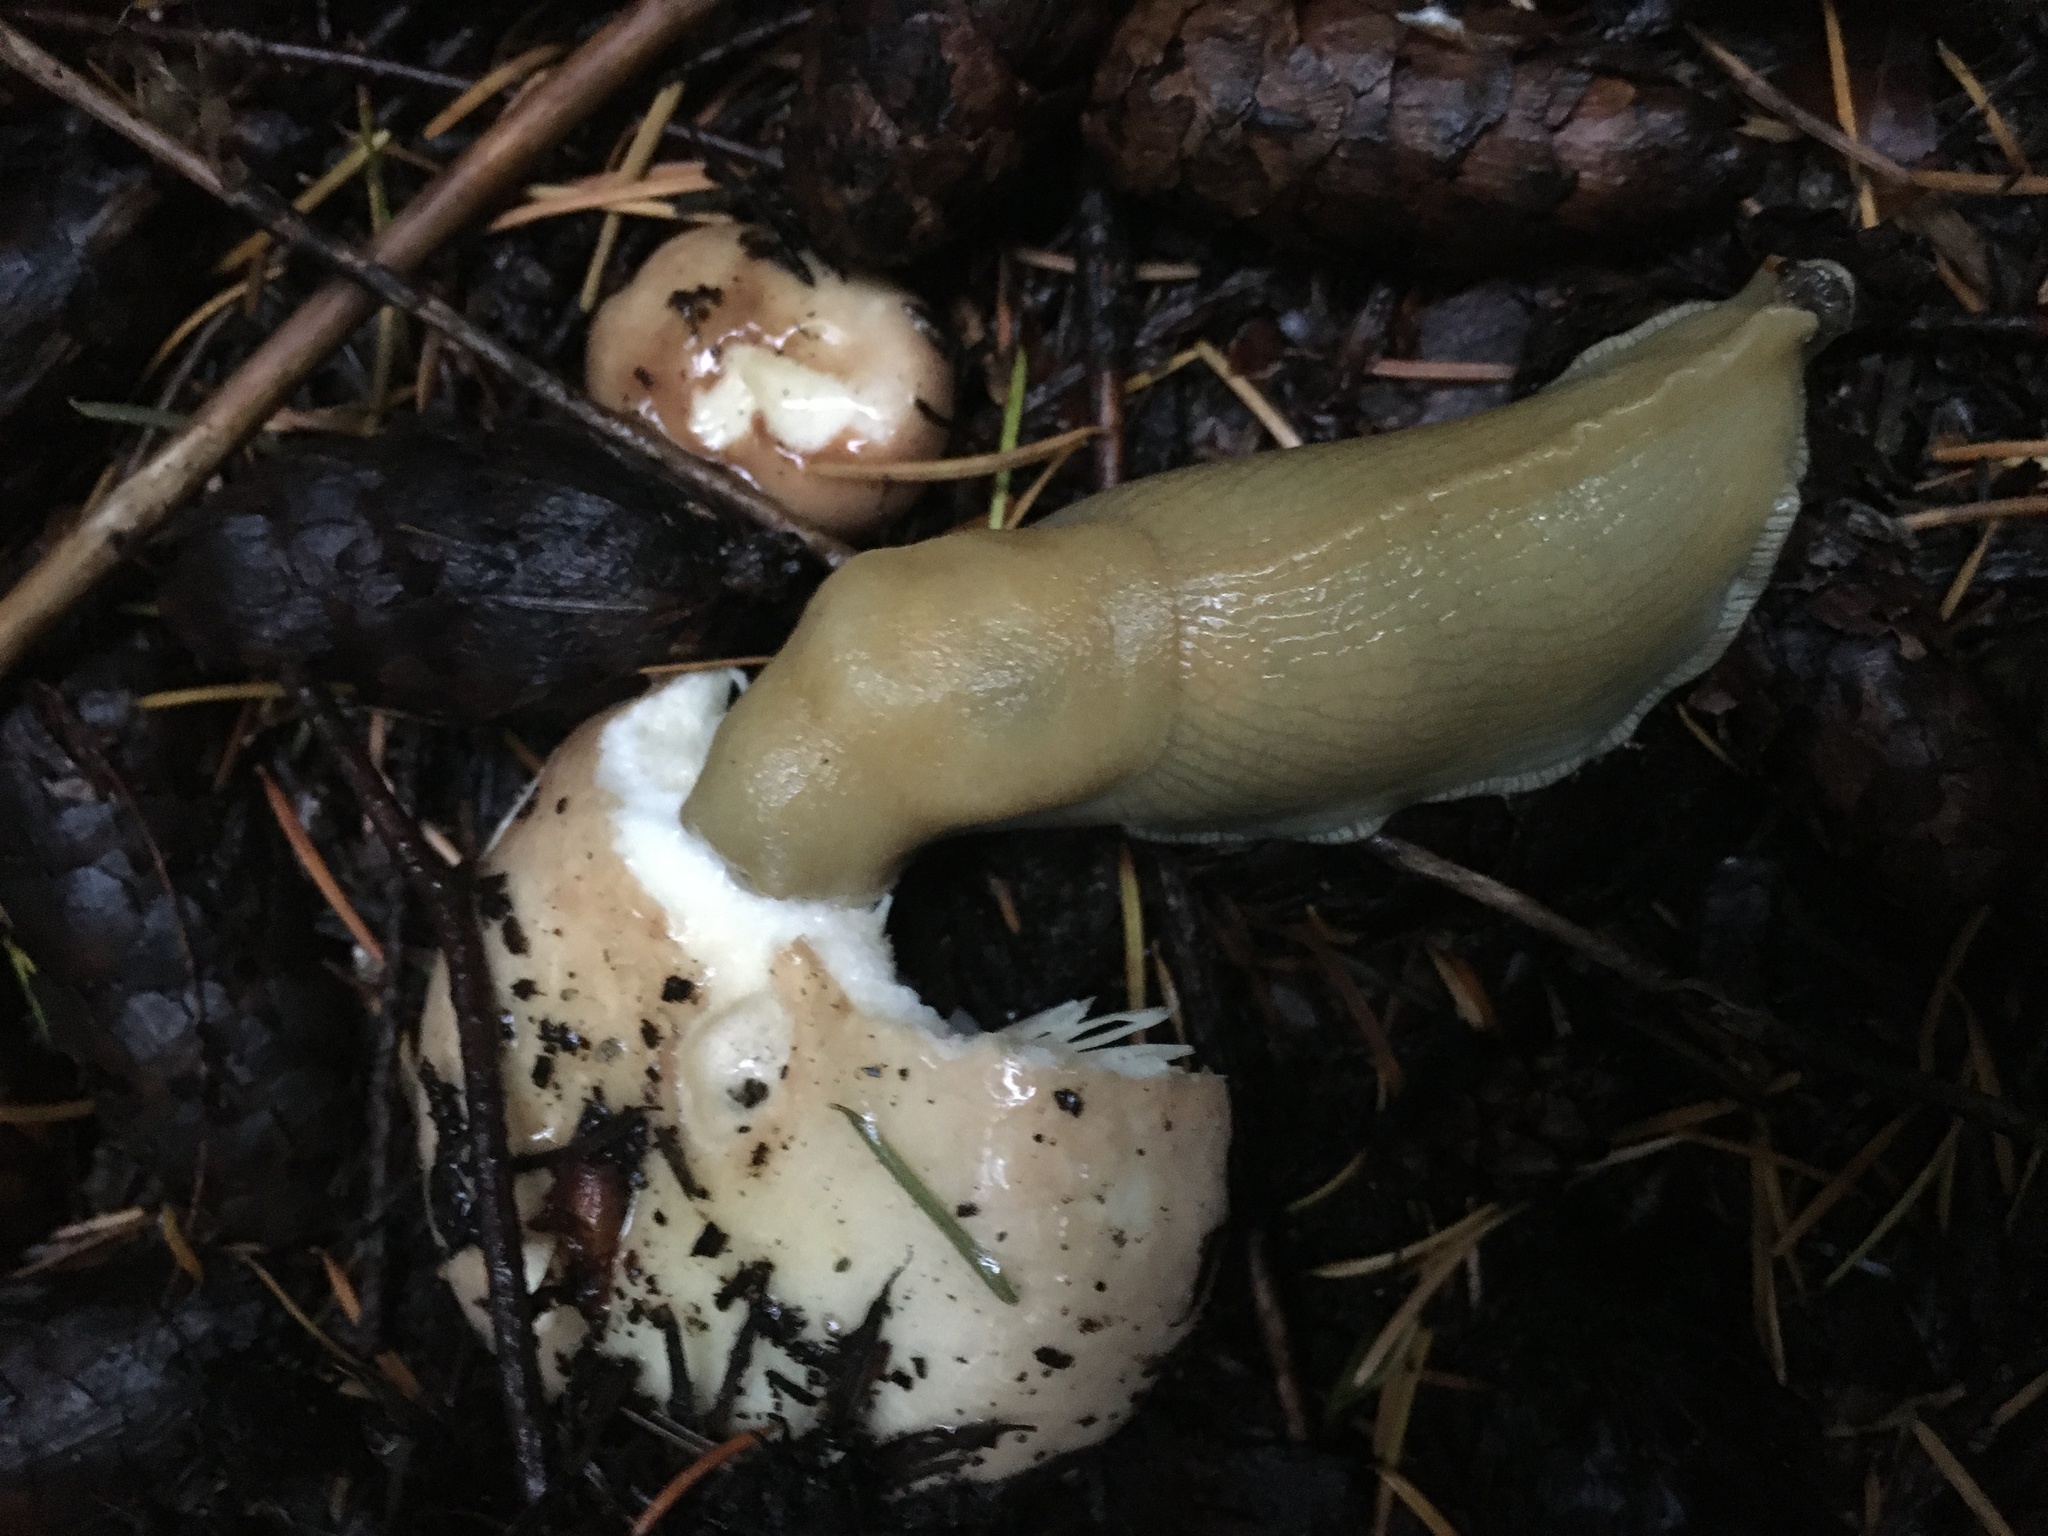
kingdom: Animalia
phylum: Mollusca
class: Gastropoda
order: Stylommatophora
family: Ariolimacidae
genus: Ariolimax
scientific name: Ariolimax columbianus
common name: Pacific banana slug
